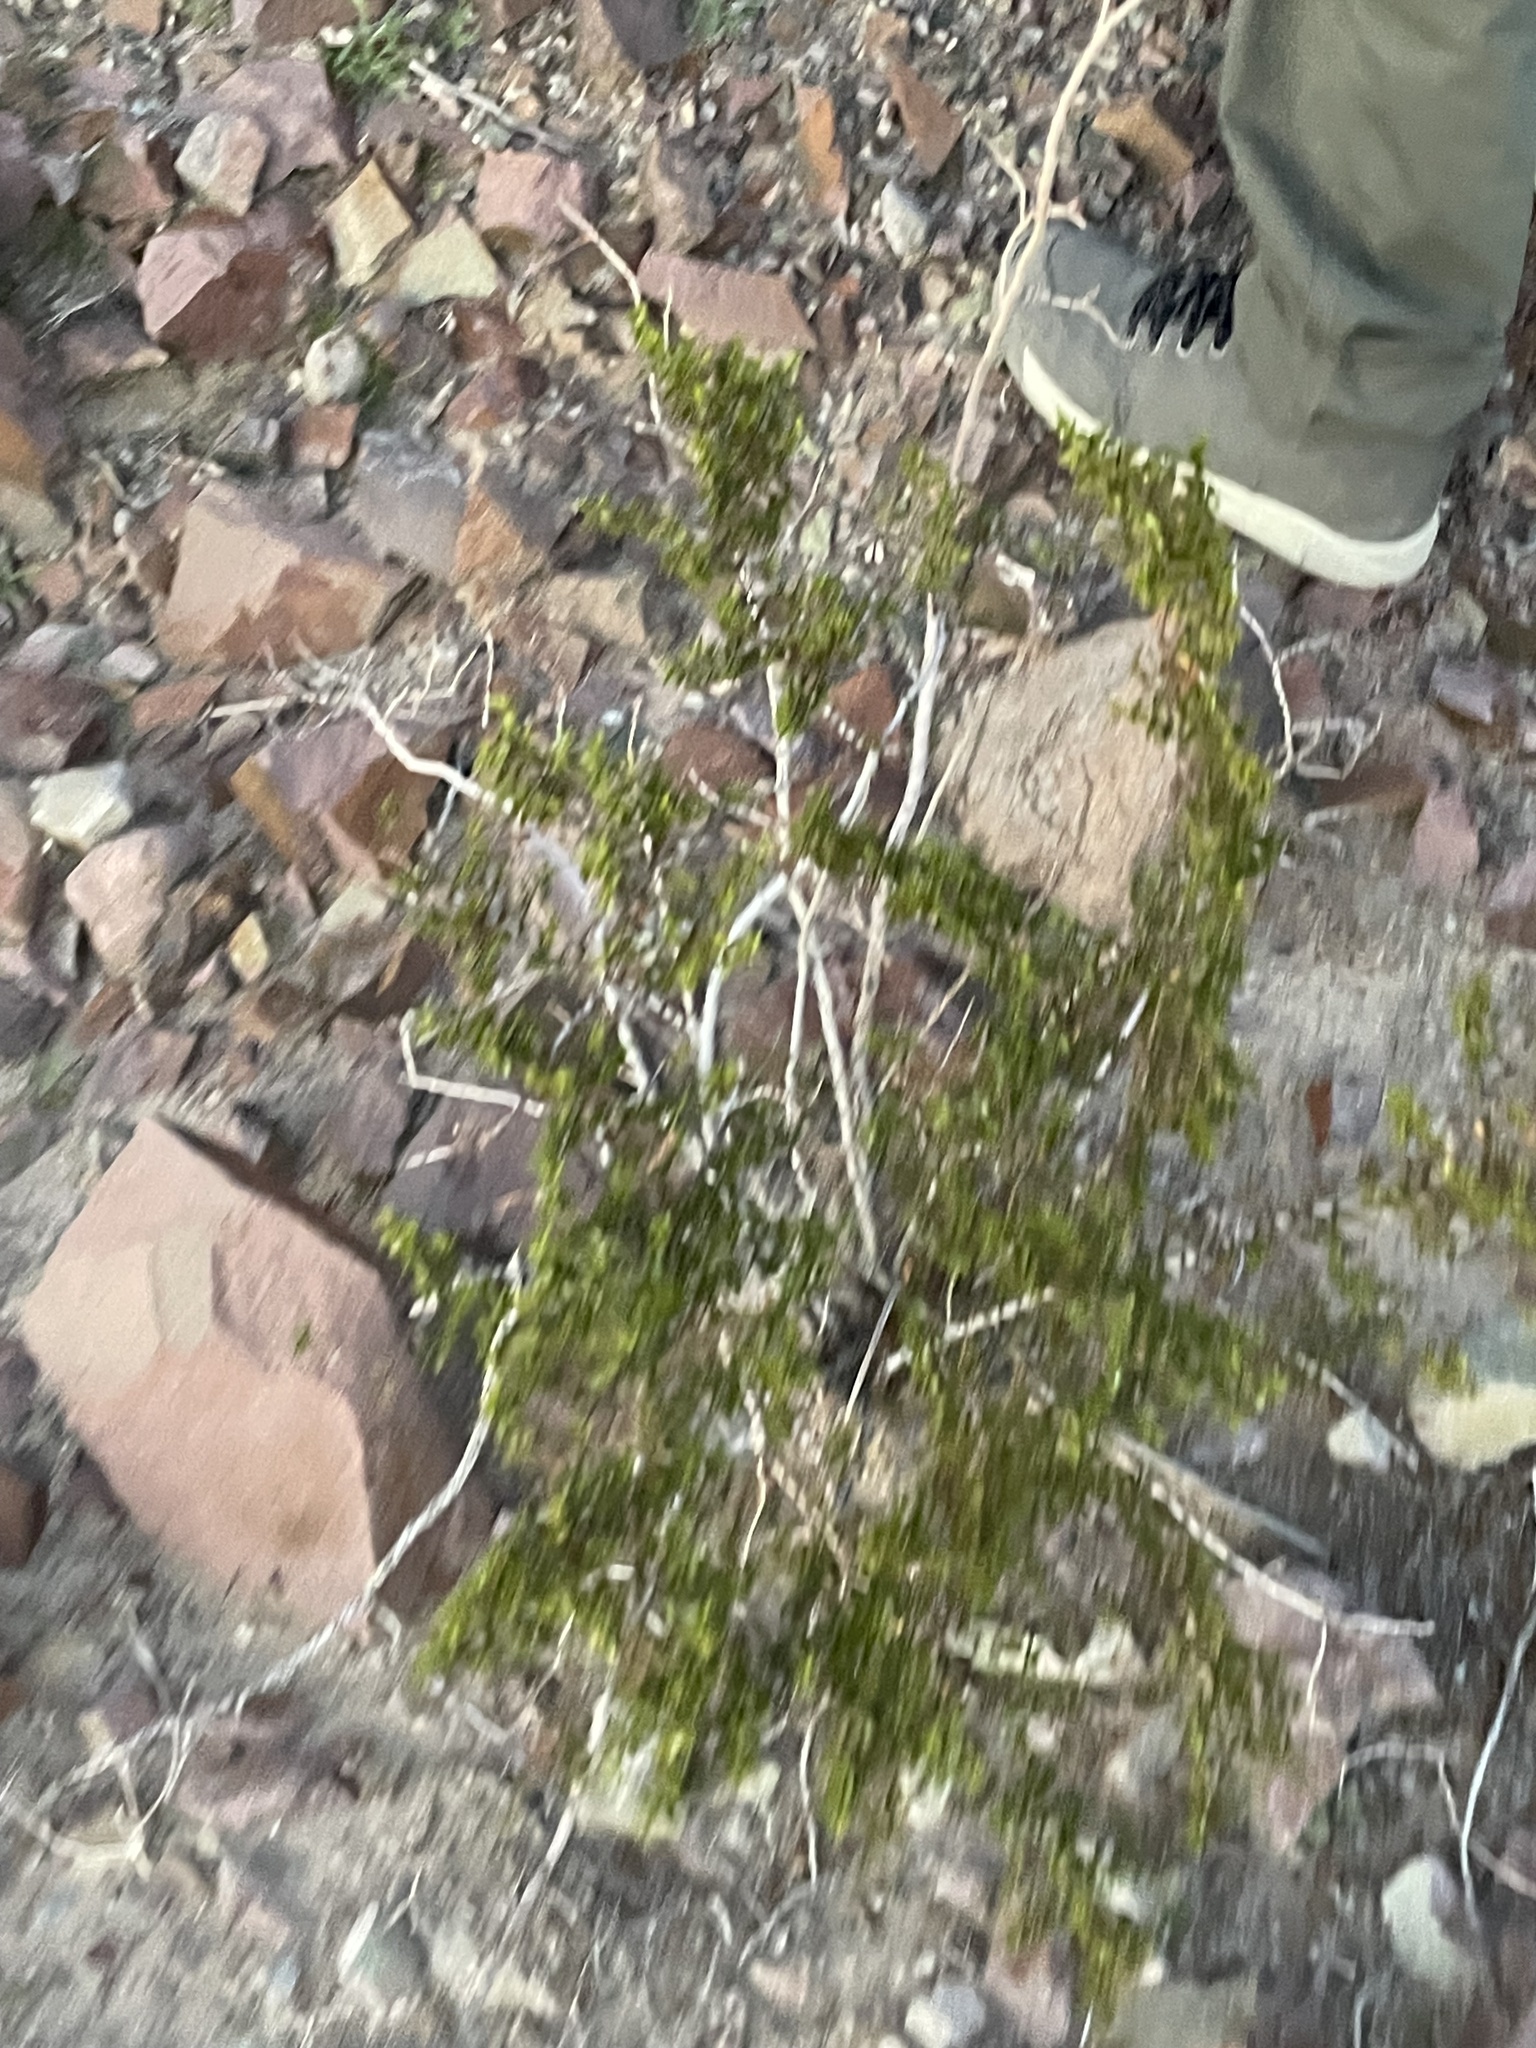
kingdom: Plantae
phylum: Tracheophyta
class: Magnoliopsida
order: Zygophyllales
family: Zygophyllaceae
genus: Larrea
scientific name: Larrea tridentata
